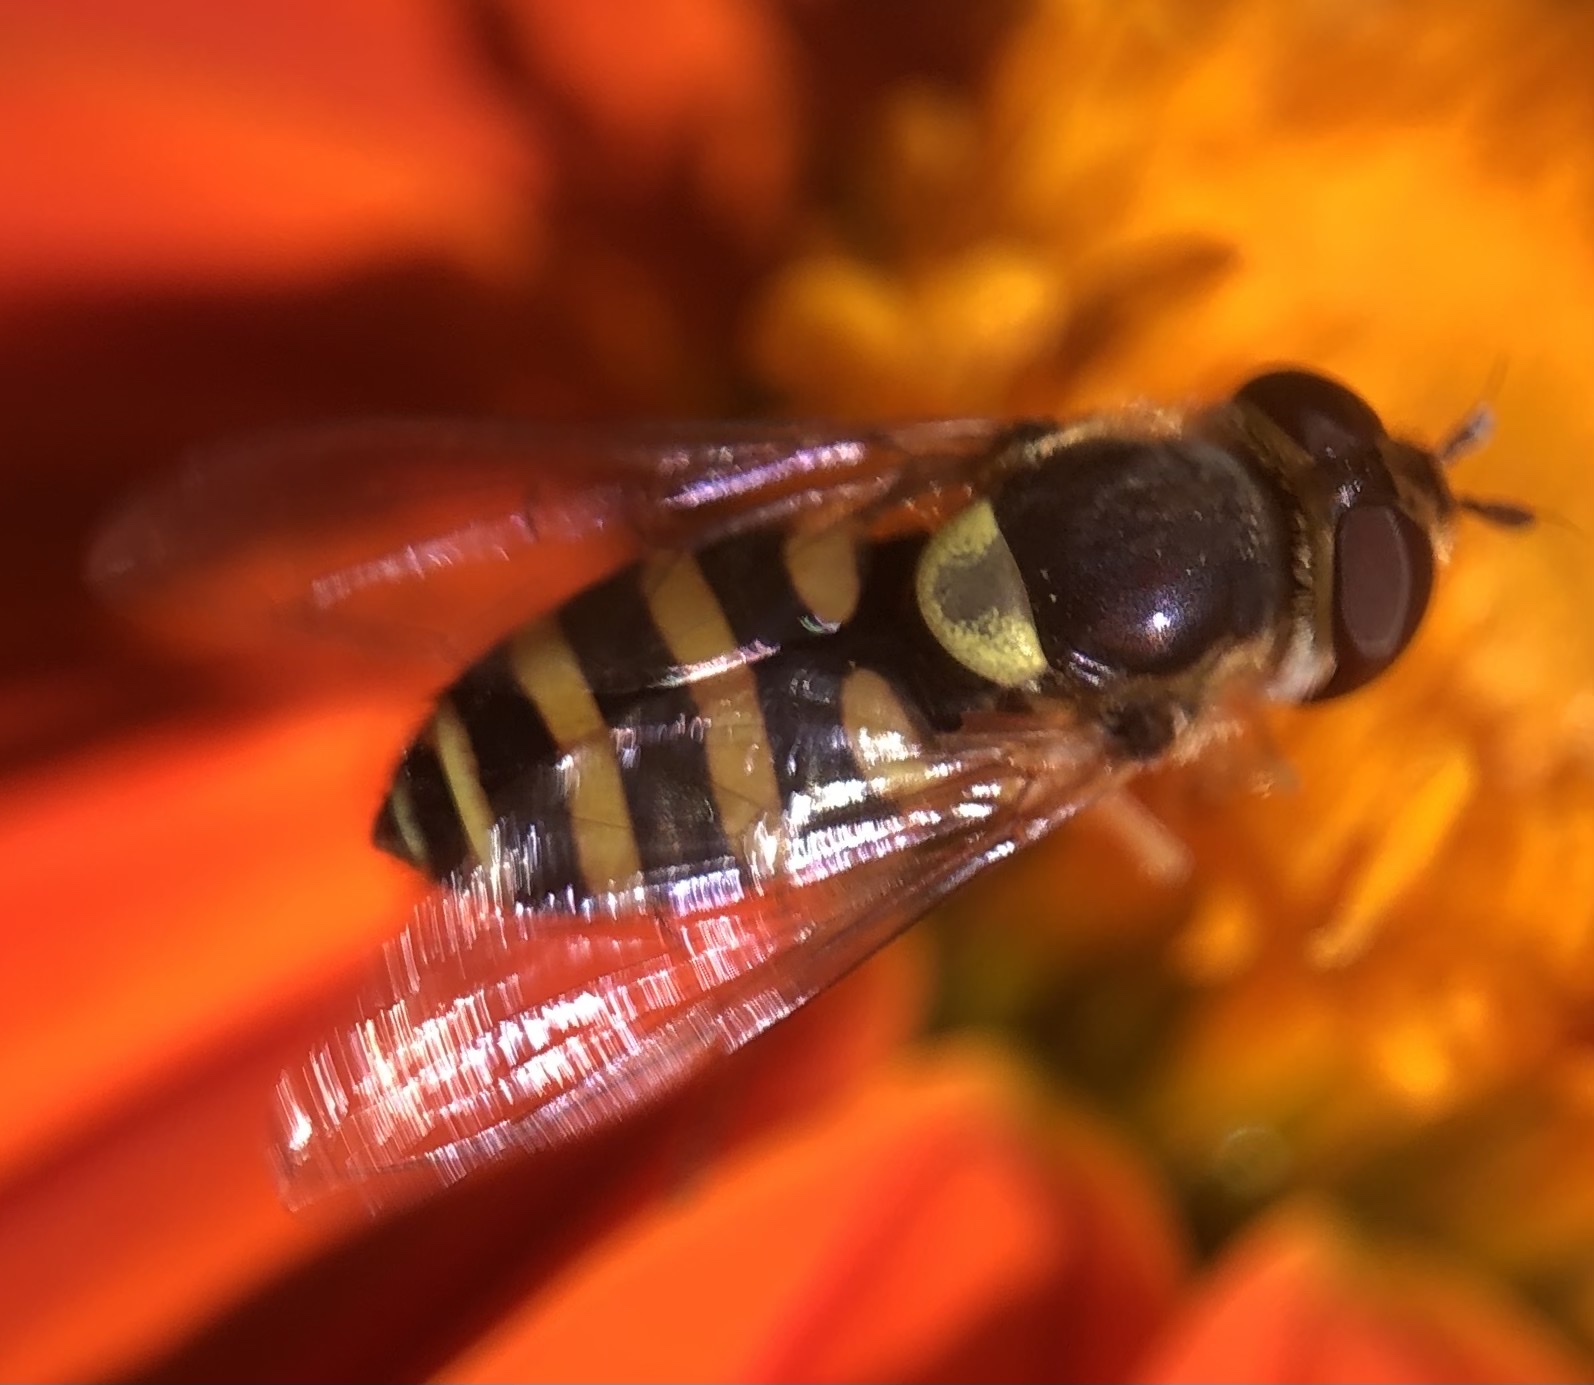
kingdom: Animalia
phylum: Arthropoda
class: Insecta
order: Diptera
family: Syrphidae
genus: Syrphus
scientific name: Syrphus rectus
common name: Yellow-legged flower fly
